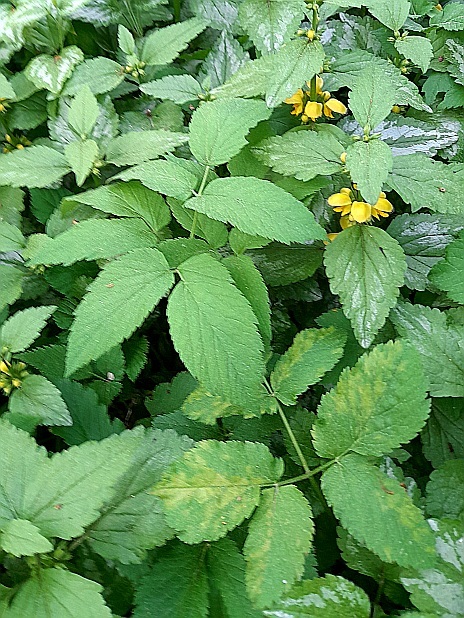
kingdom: Plantae
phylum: Tracheophyta
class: Magnoliopsida
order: Apiales
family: Apiaceae
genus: Aegopodium
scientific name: Aegopodium podagraria
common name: Ground-elder
